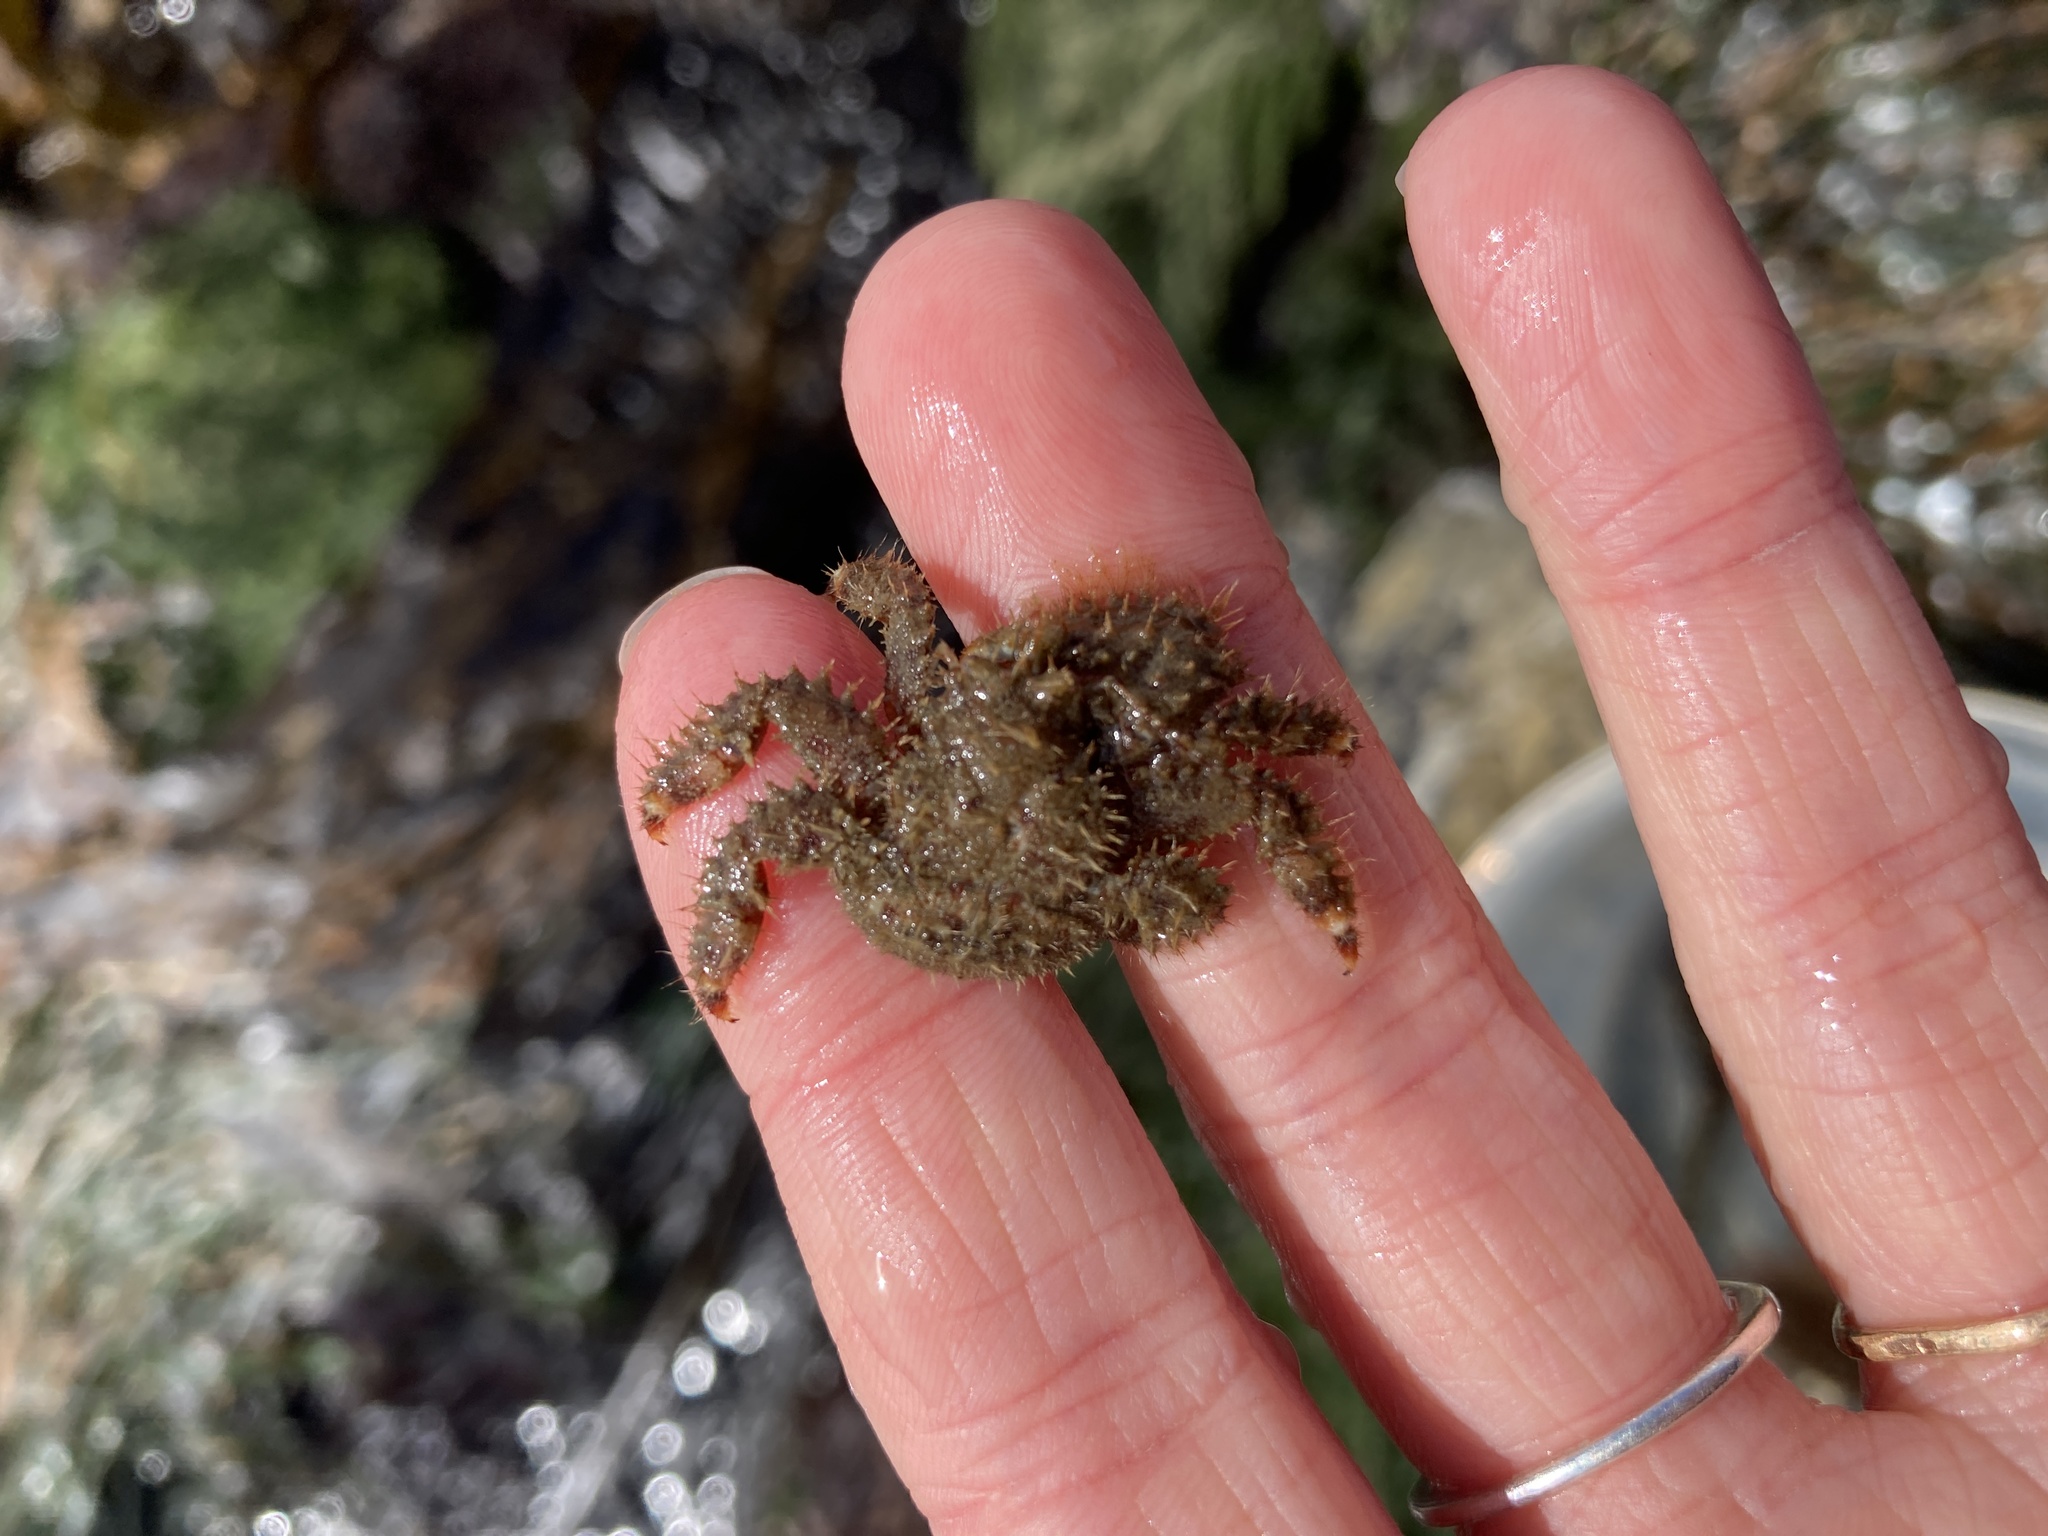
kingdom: Animalia
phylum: Arthropoda
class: Malacostraca
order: Decapoda
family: Hapalogastridae
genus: Hapalogaster
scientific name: Hapalogaster mertensii
